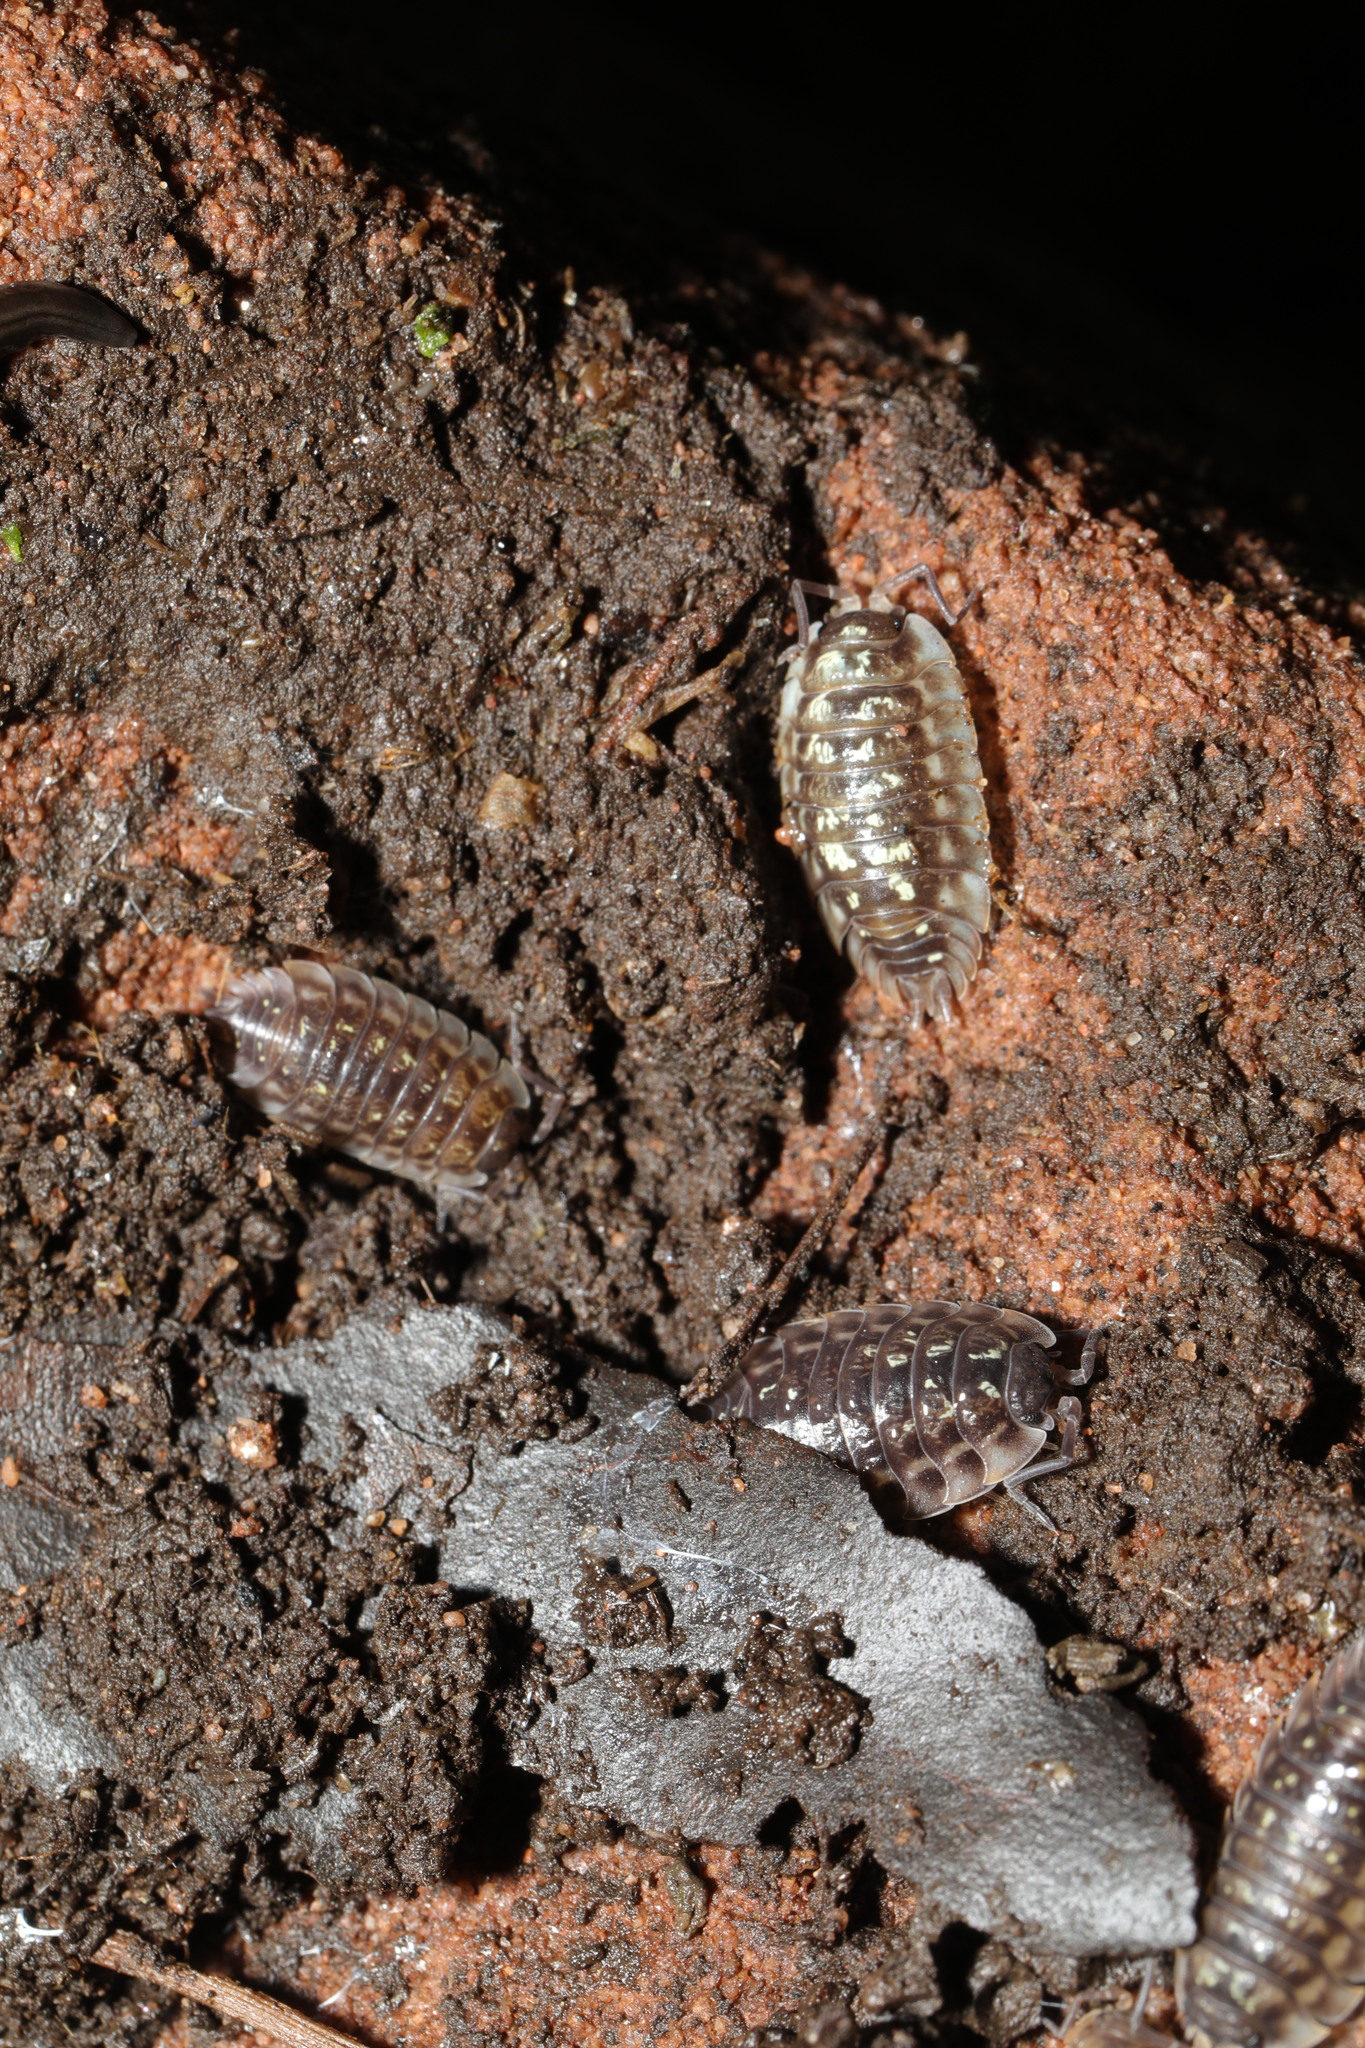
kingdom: Animalia
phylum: Arthropoda
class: Malacostraca
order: Isopoda
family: Oniscidae
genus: Oniscus
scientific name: Oniscus asellus
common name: Common shiny woodlouse
